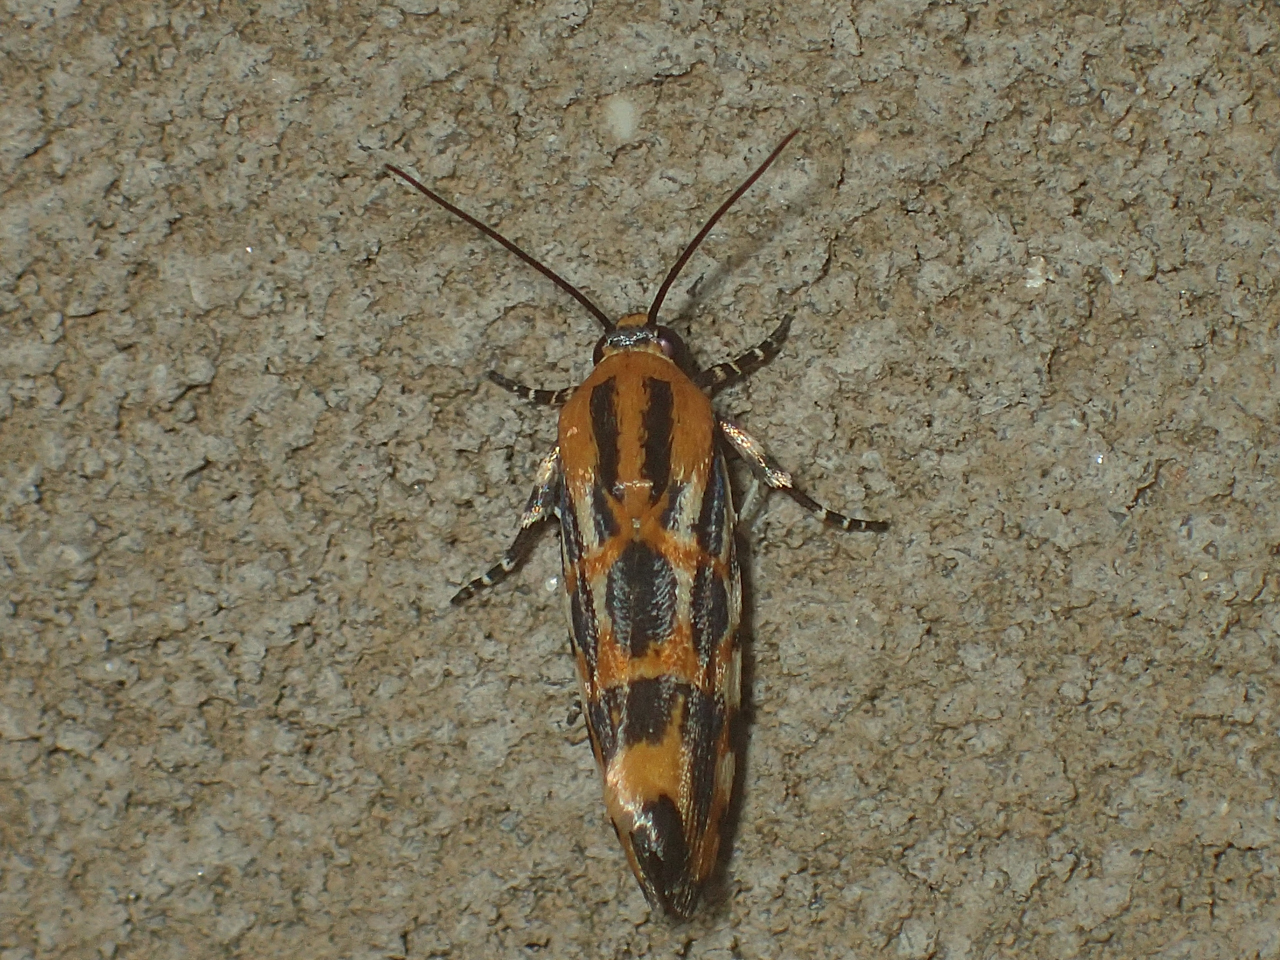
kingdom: Animalia
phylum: Arthropoda
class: Insecta
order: Lepidoptera
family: Noctuidae
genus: Acontia
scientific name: Acontia leo
